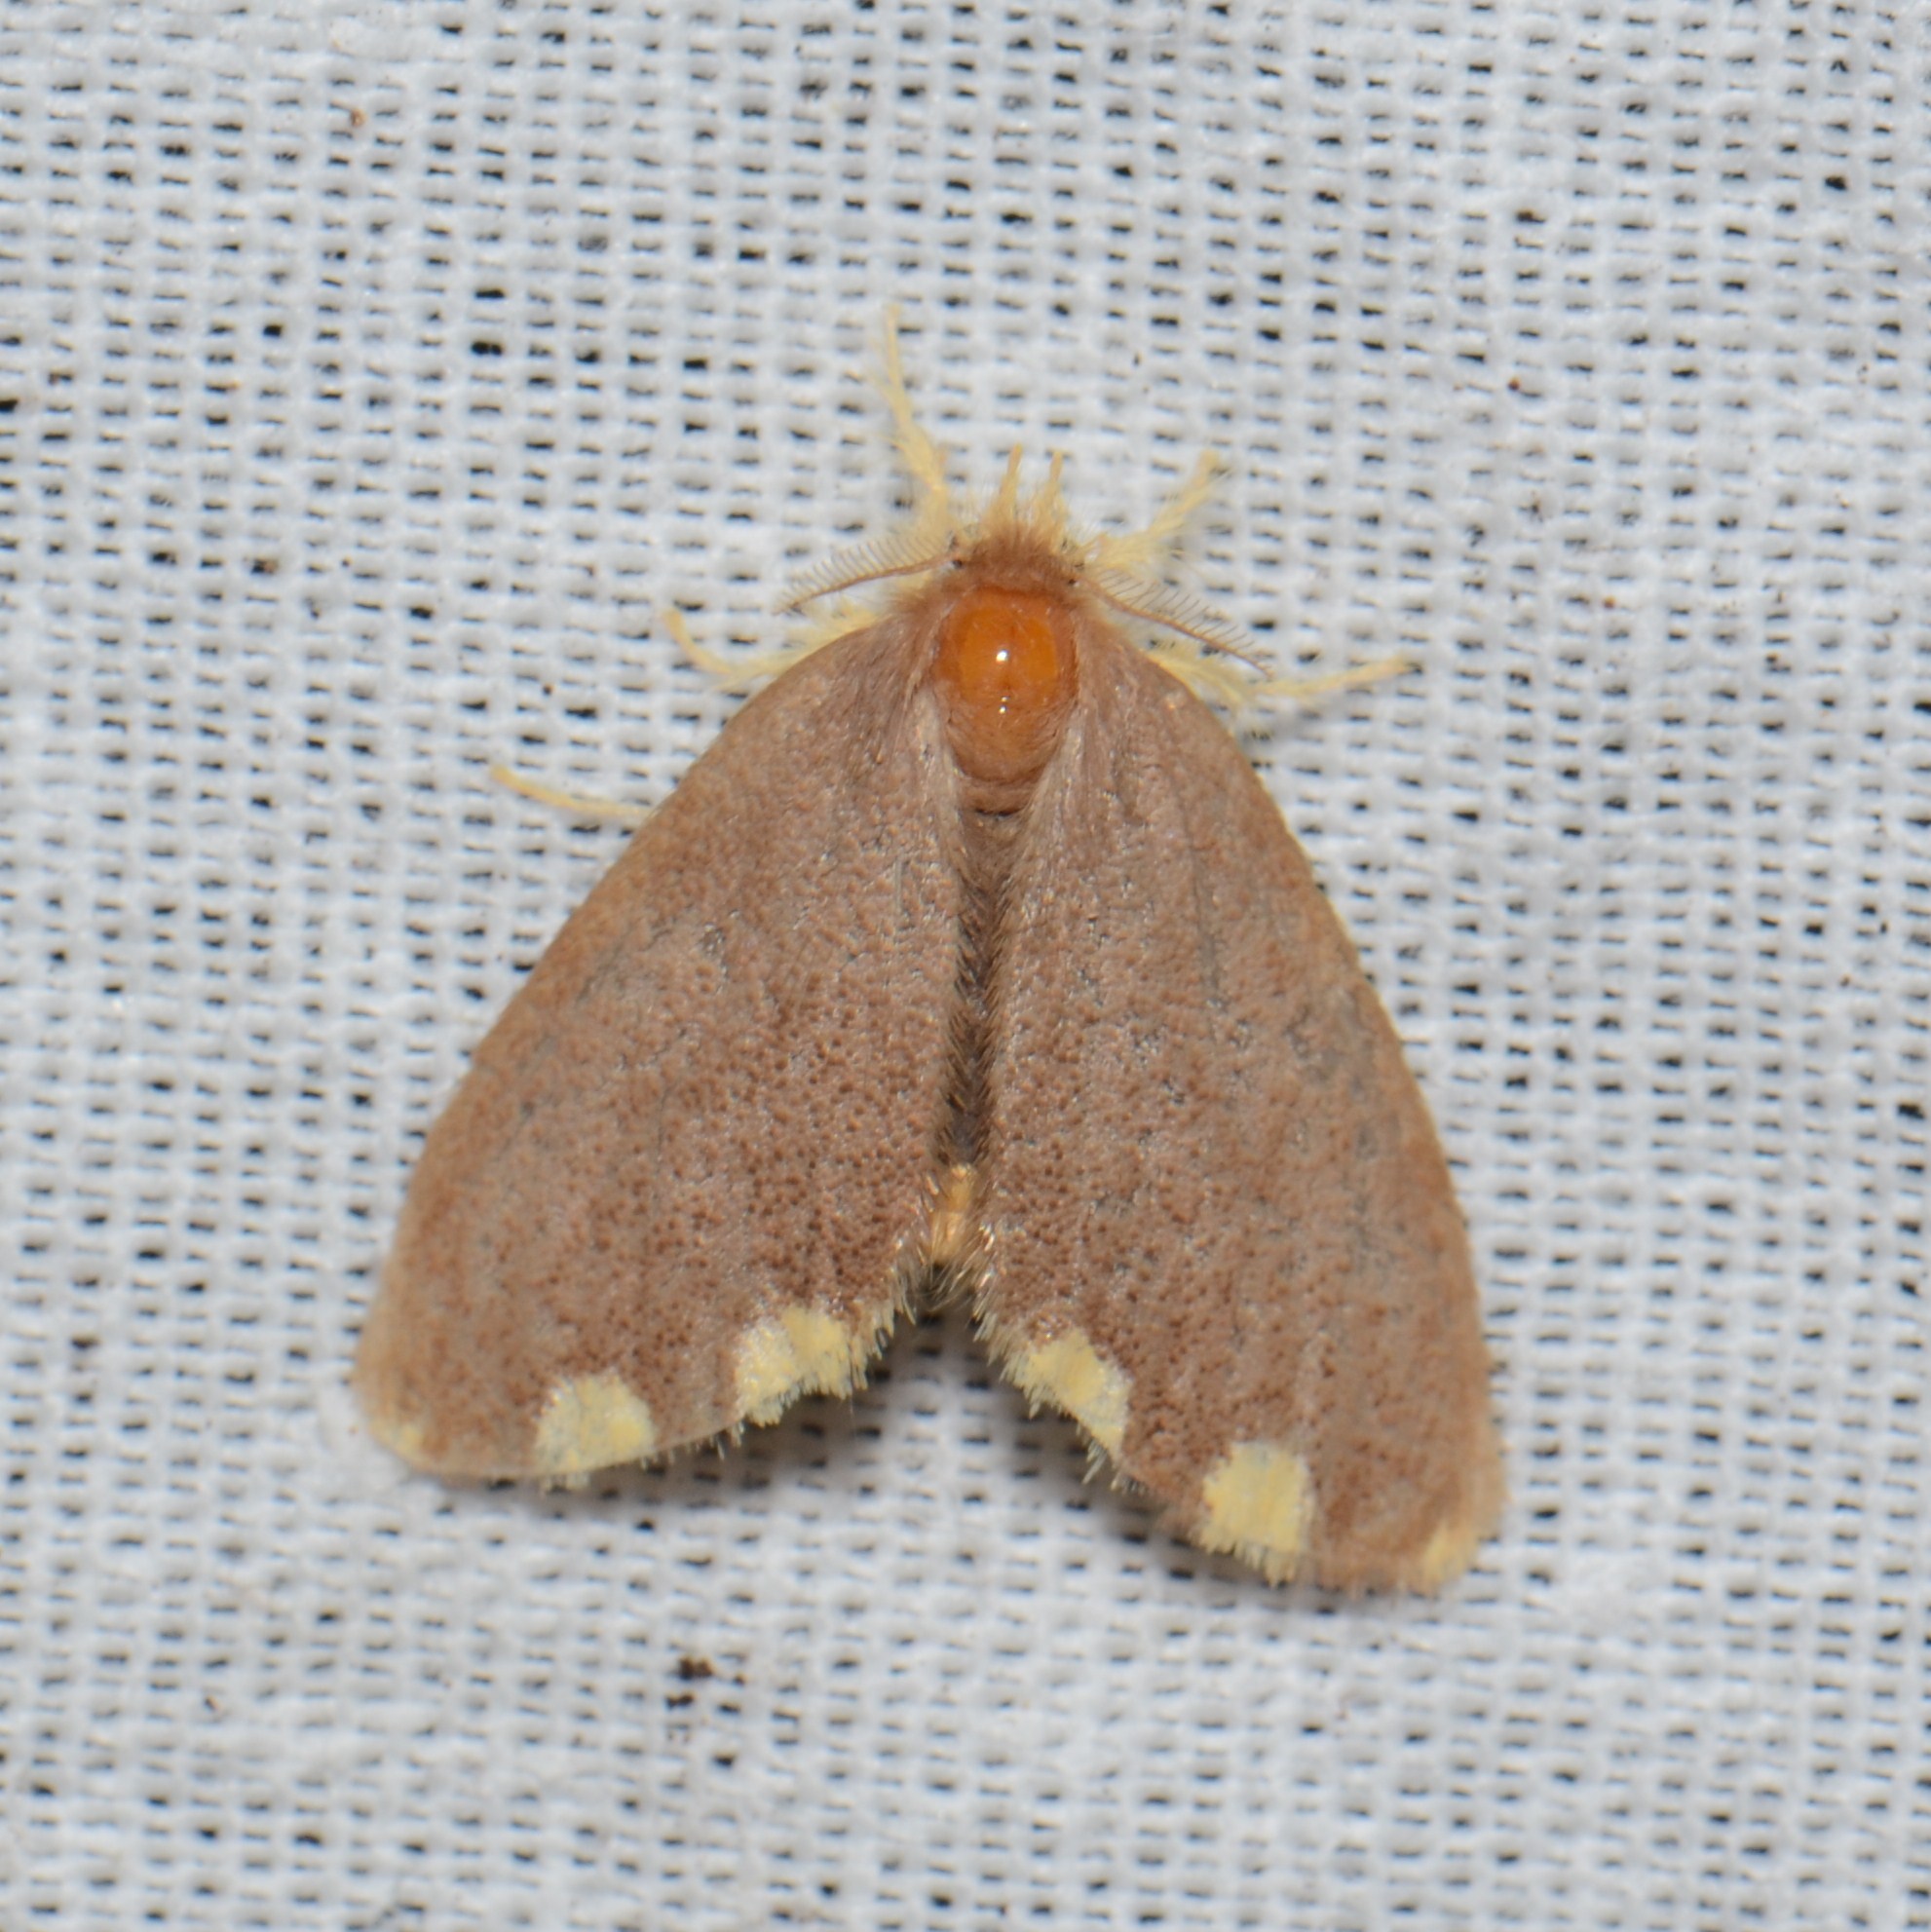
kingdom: Animalia
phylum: Arthropoda
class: Insecta
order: Lepidoptera
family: Erebidae
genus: Somena
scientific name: Somena similis
